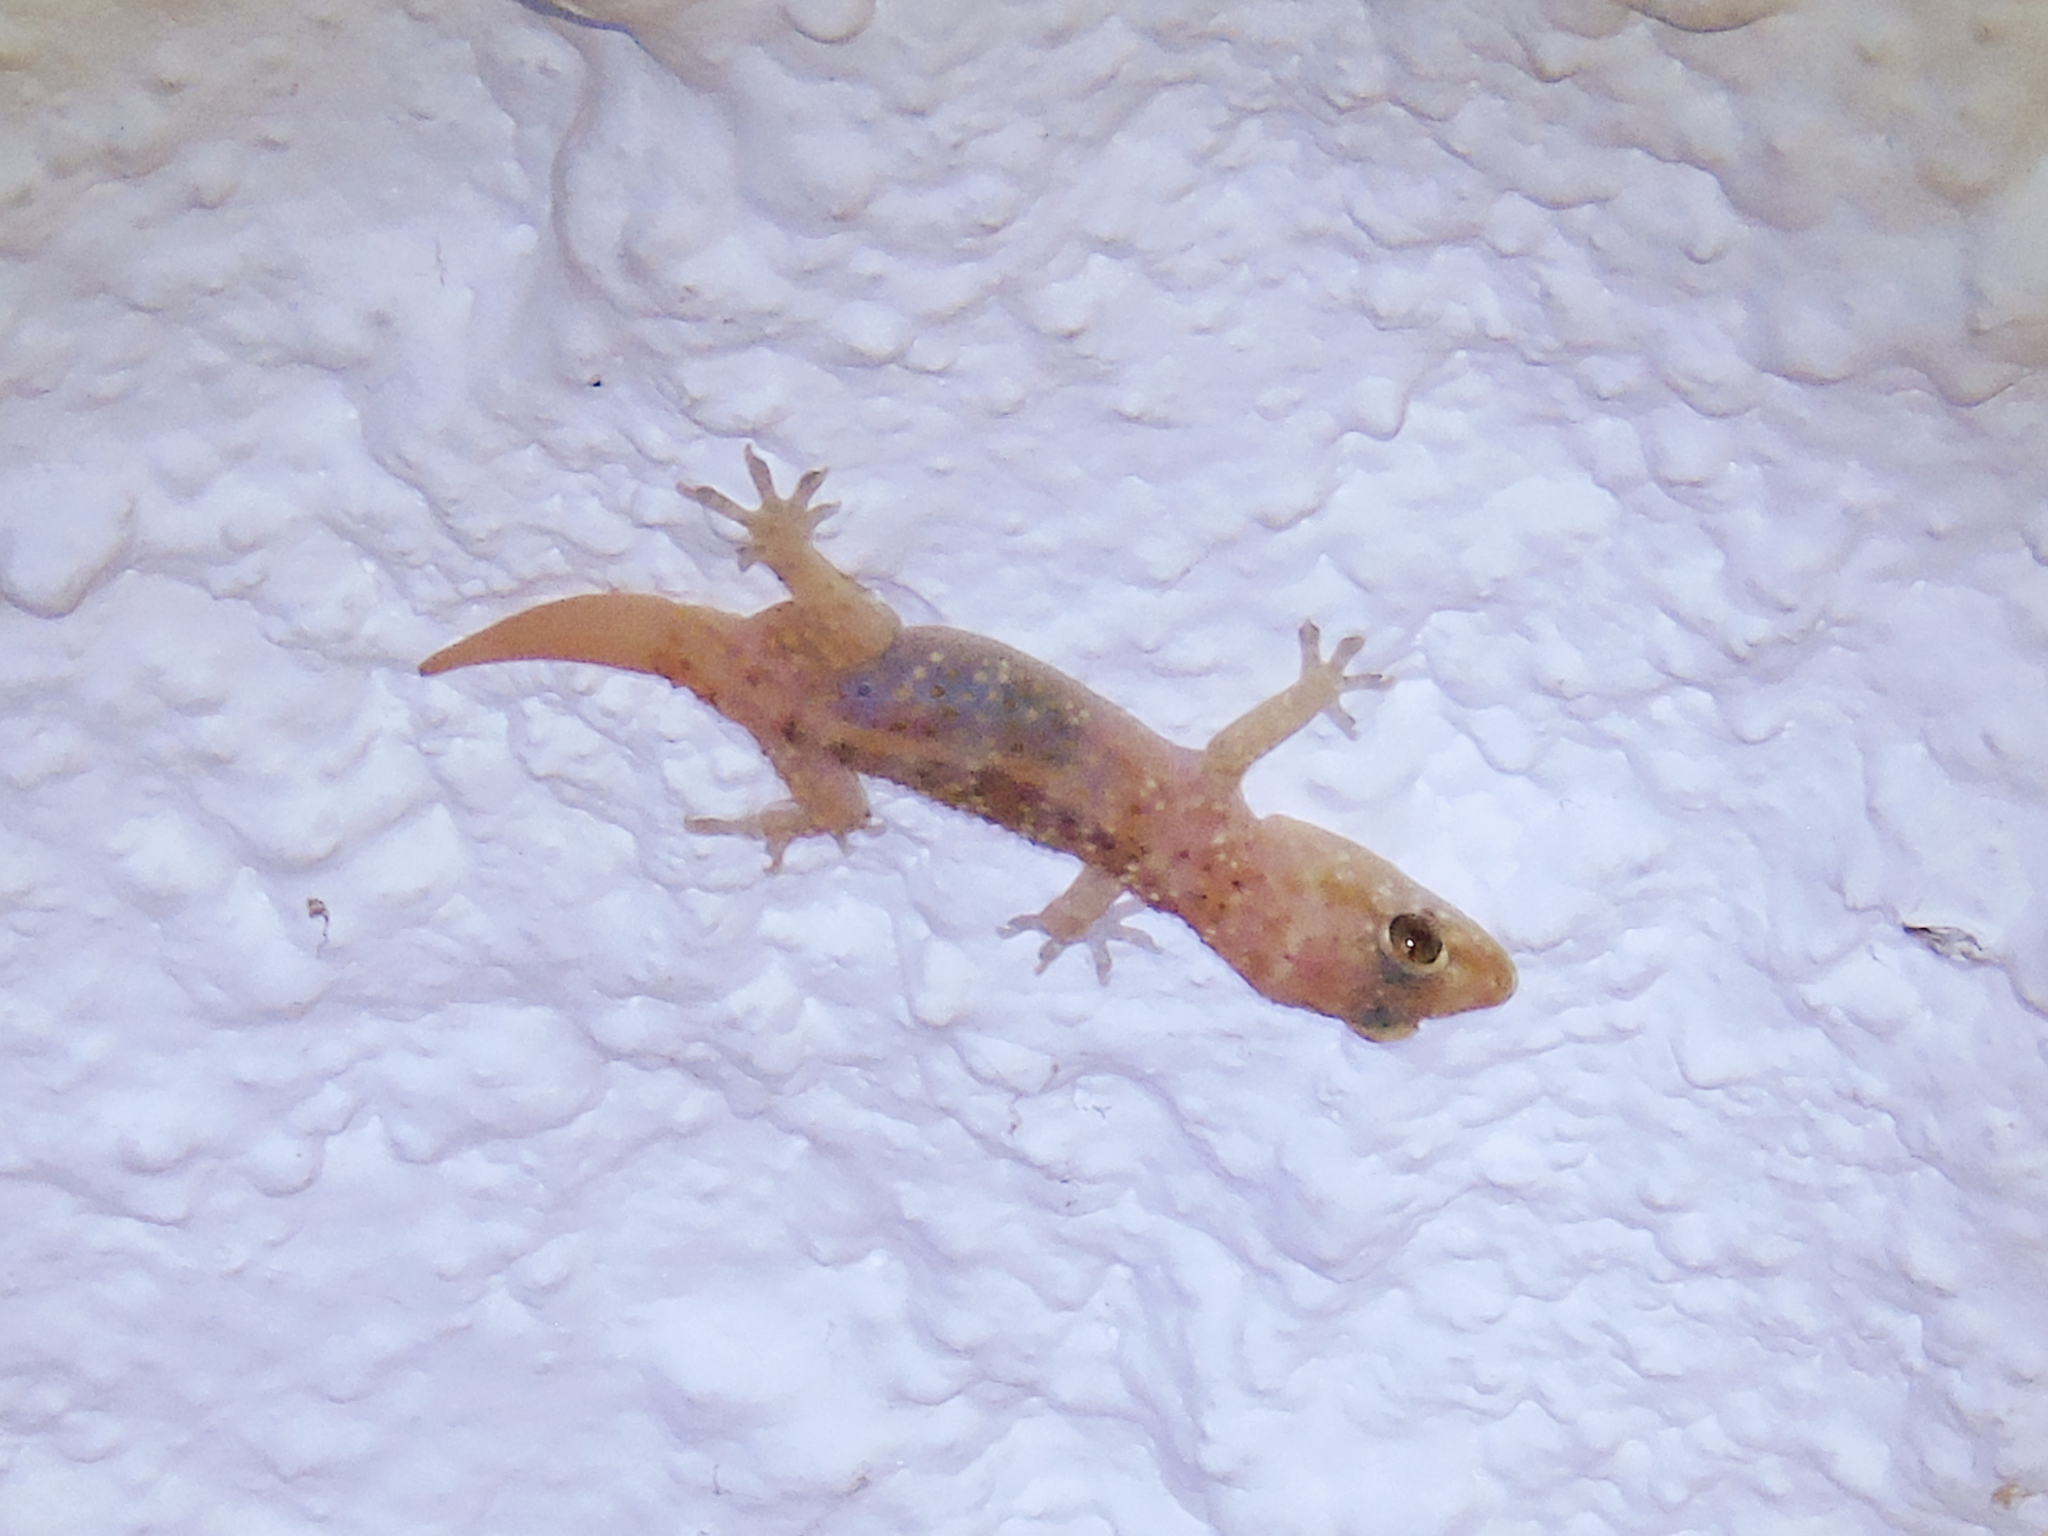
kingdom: Animalia
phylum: Chordata
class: Squamata
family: Gekkonidae
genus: Hemidactylus
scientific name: Hemidactylus turcicus
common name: Turkish gecko
